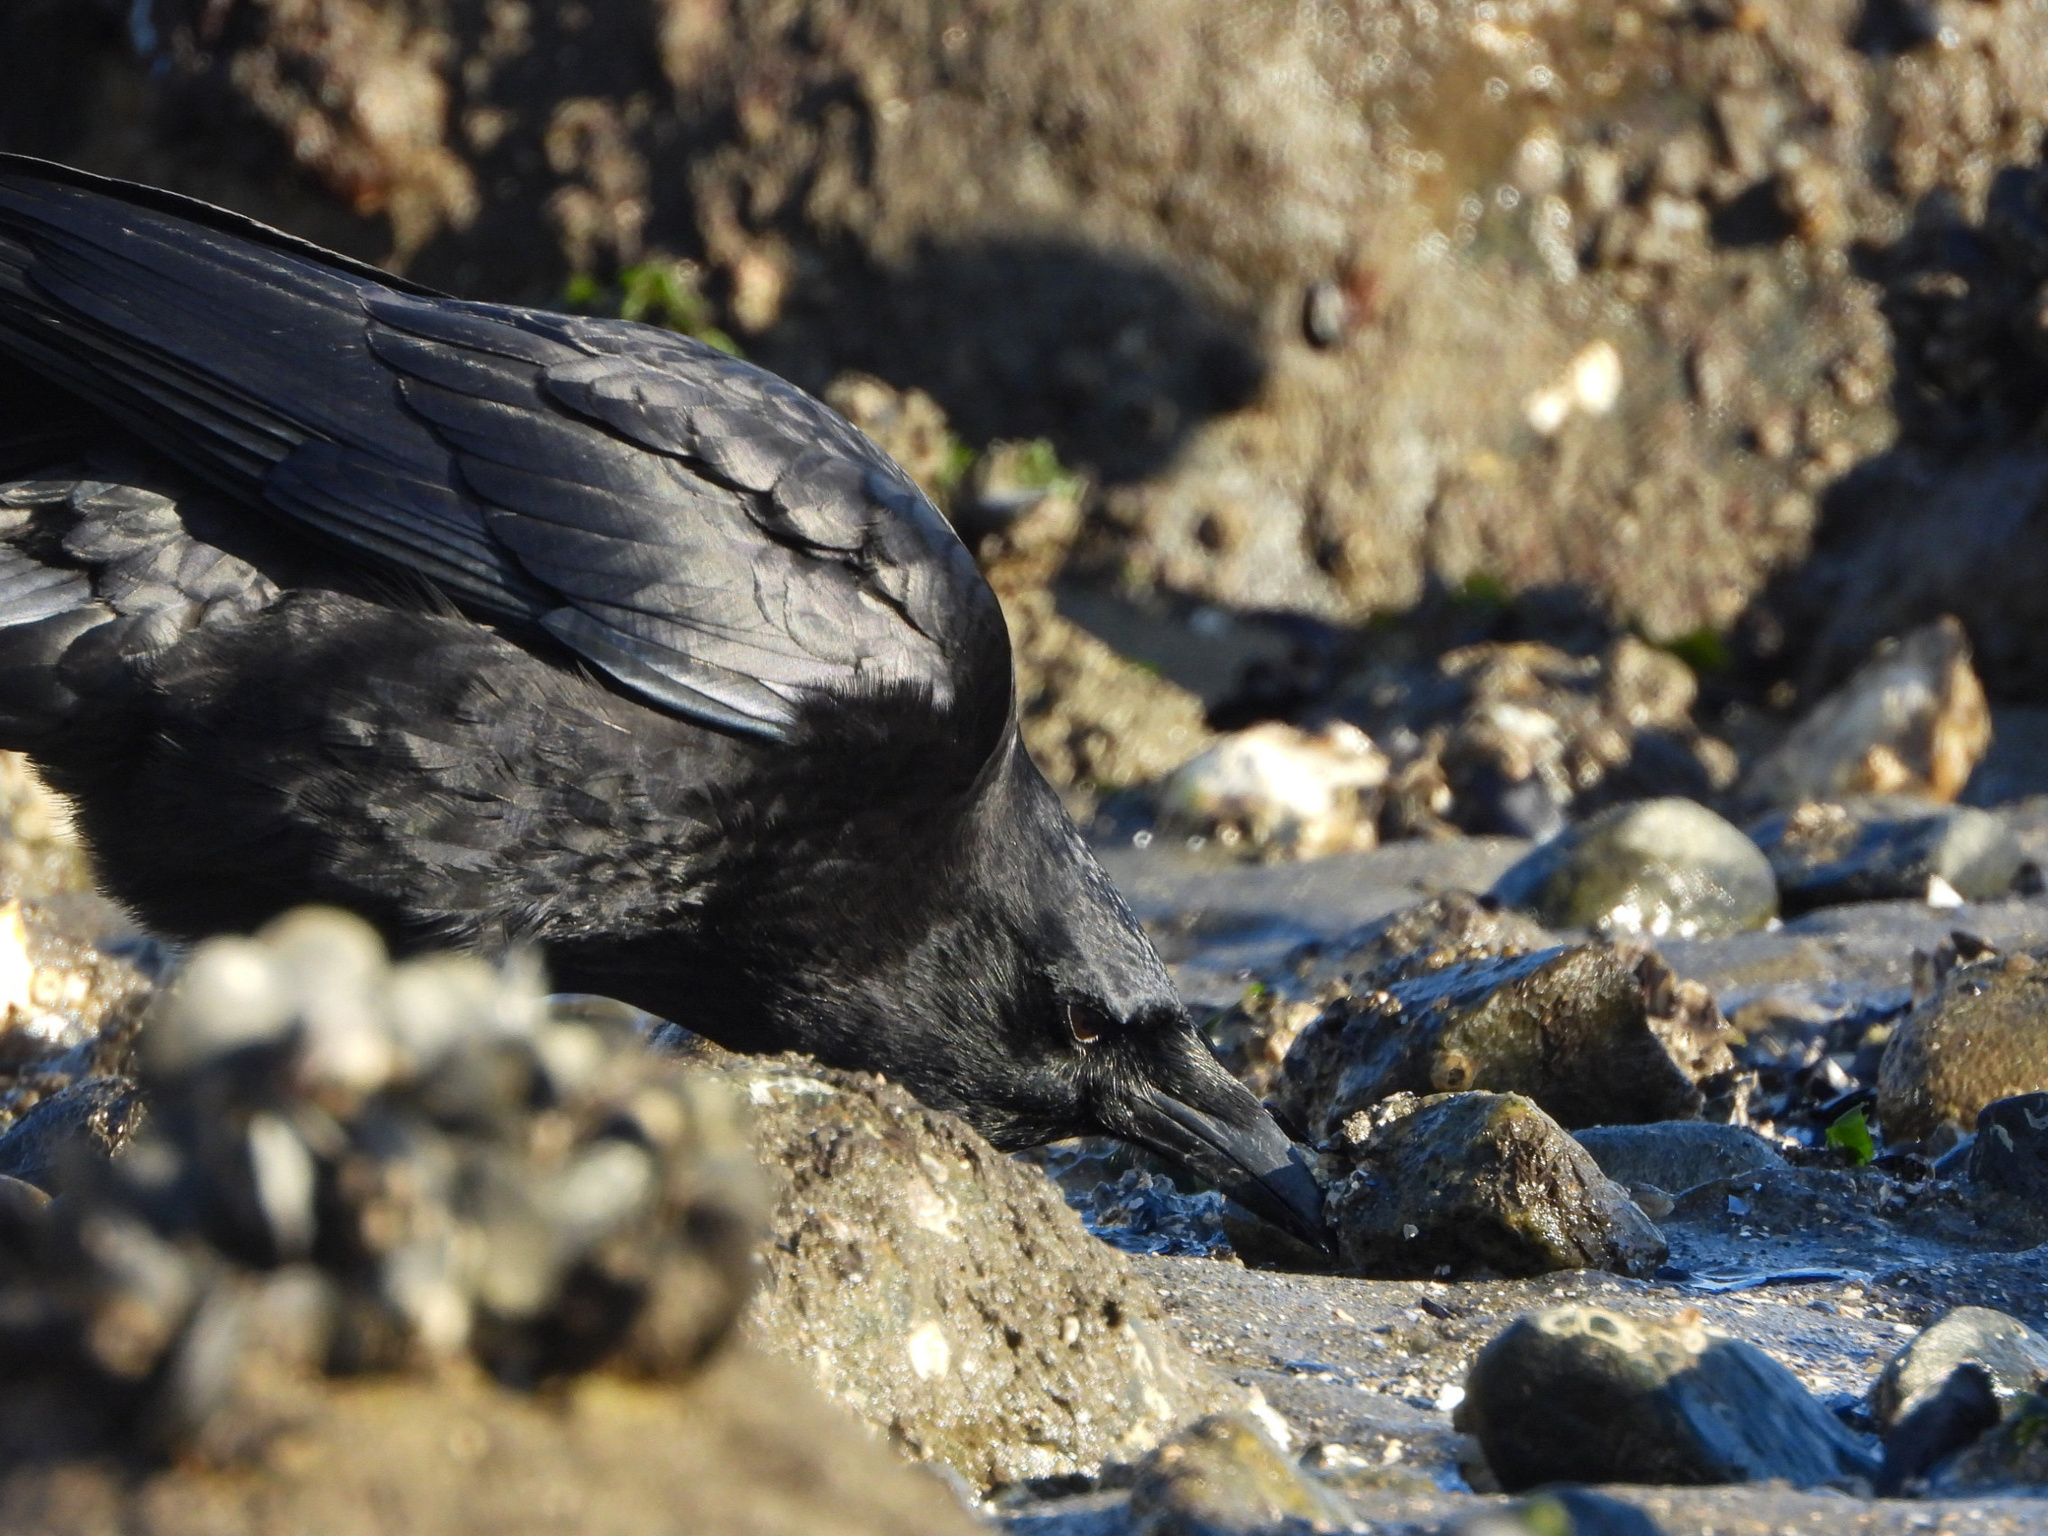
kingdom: Animalia
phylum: Chordata
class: Aves
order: Passeriformes
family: Corvidae
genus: Corvus
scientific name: Corvus brachyrhynchos
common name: American crow
